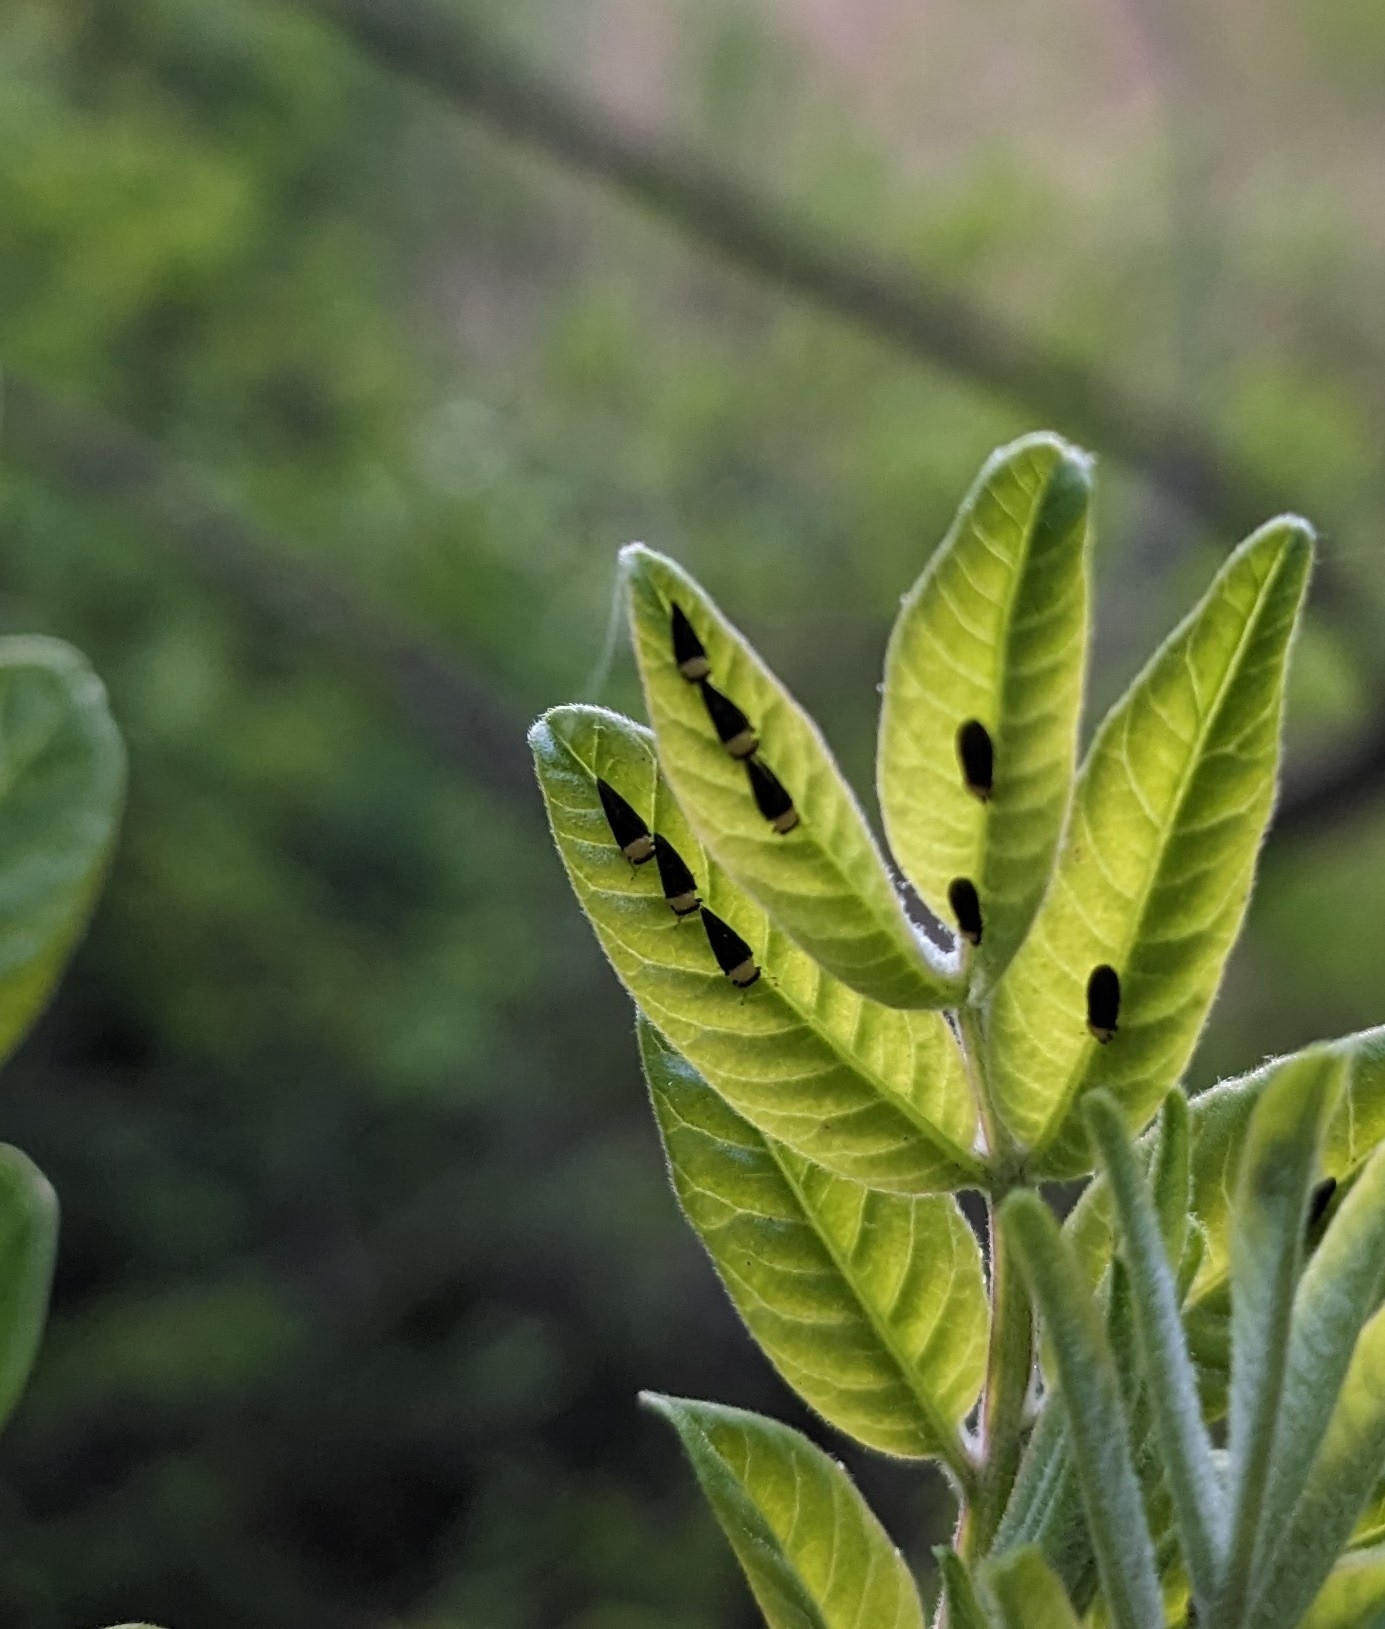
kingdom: Animalia
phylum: Arthropoda
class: Insecta
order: Hemiptera
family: Calophyidae
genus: Calophya
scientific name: Calophya nigripennis
